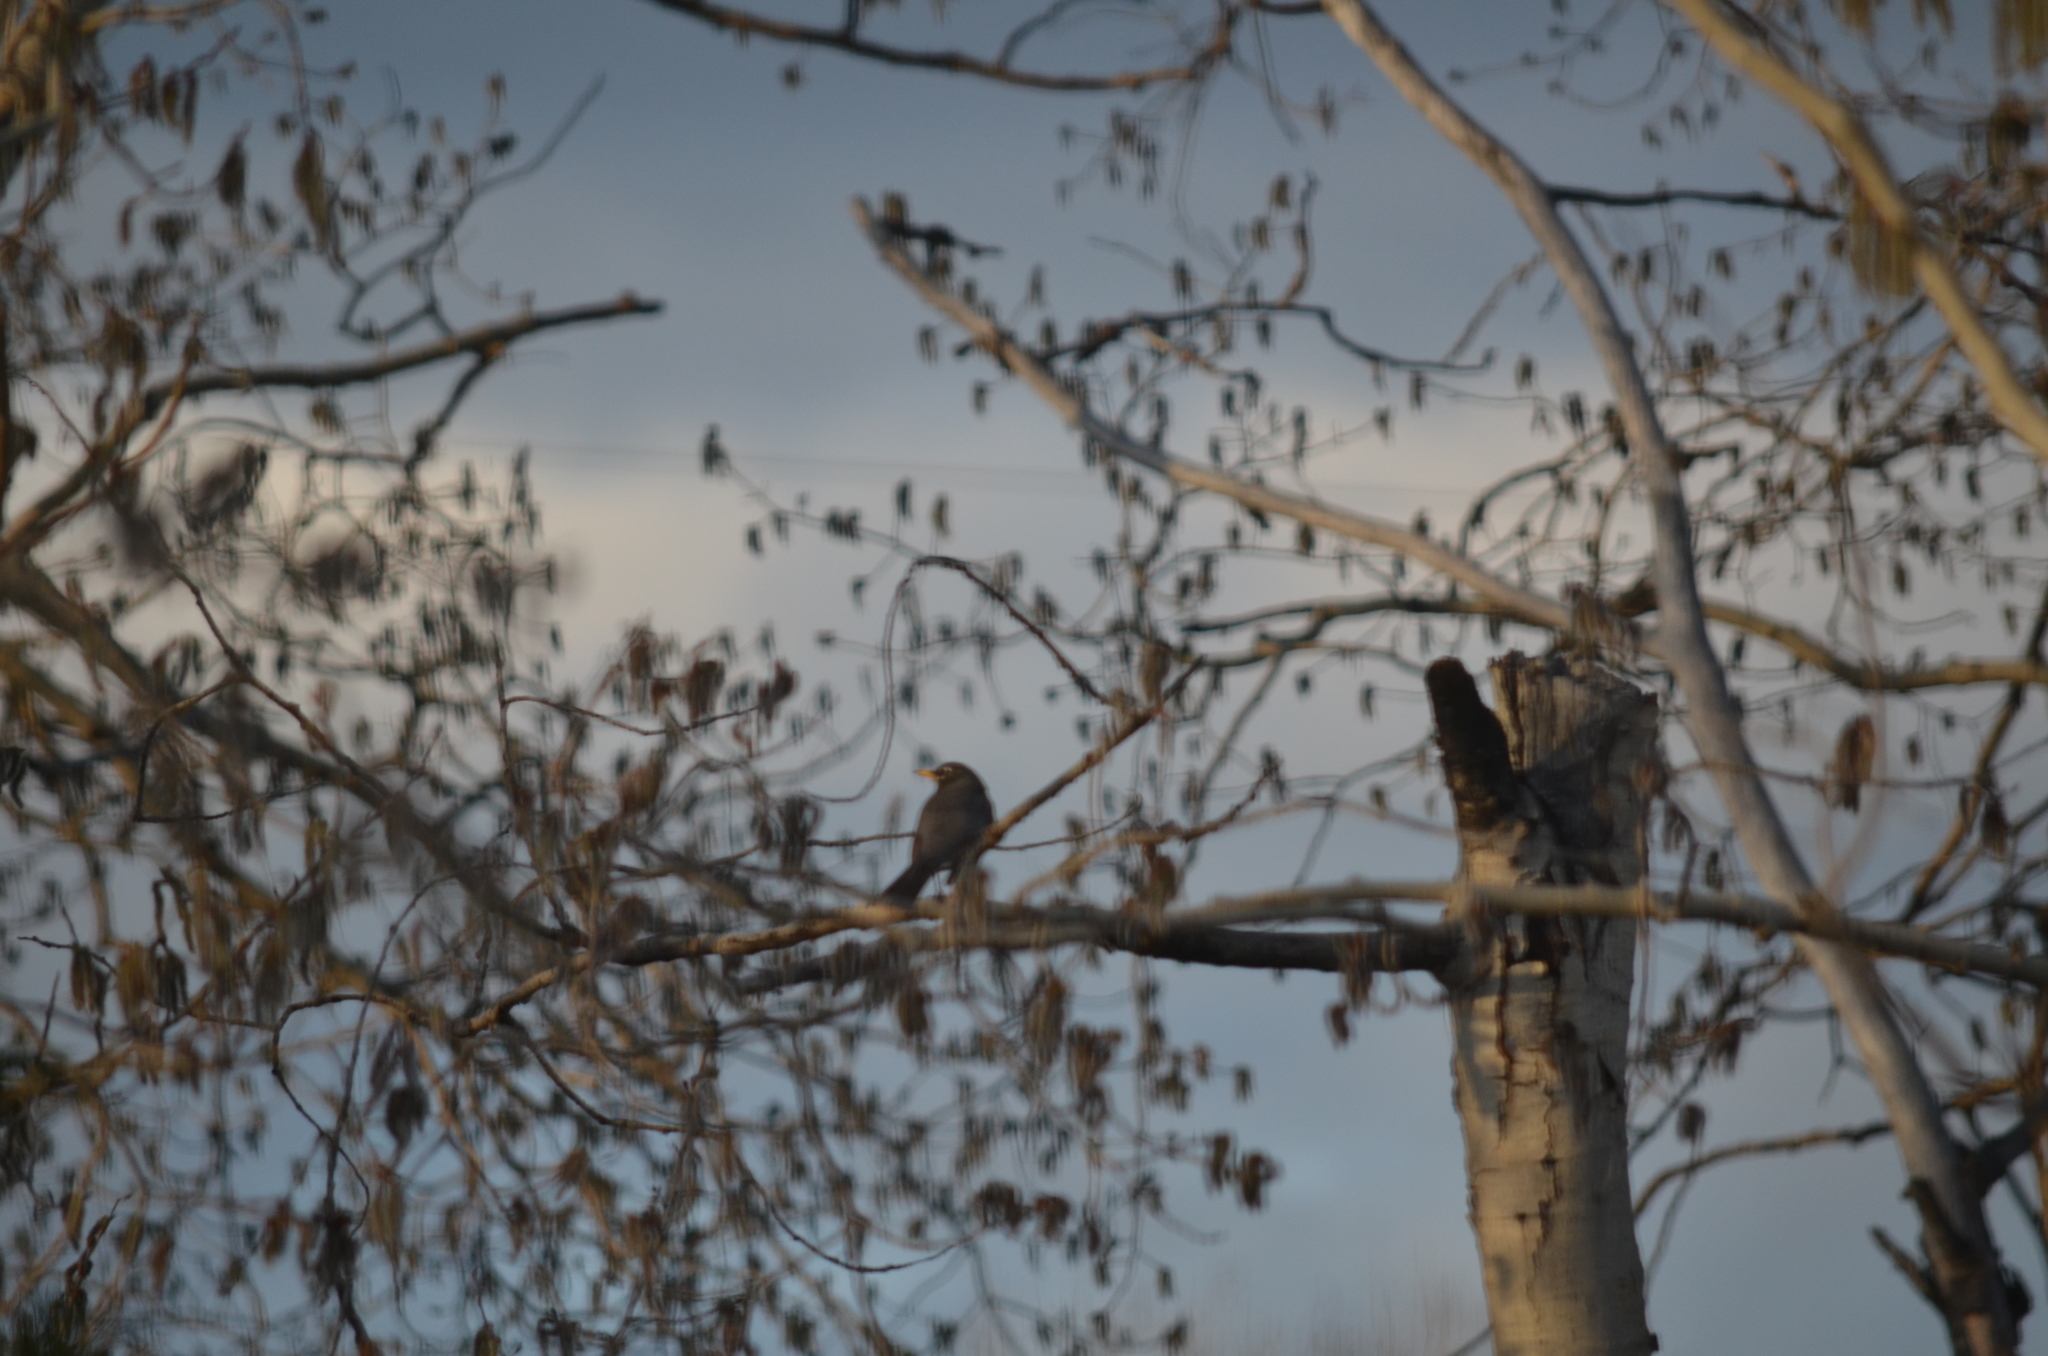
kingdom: Animalia
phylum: Chordata
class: Aves
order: Passeriformes
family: Turdidae
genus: Turdus
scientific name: Turdus migratorius
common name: American robin
